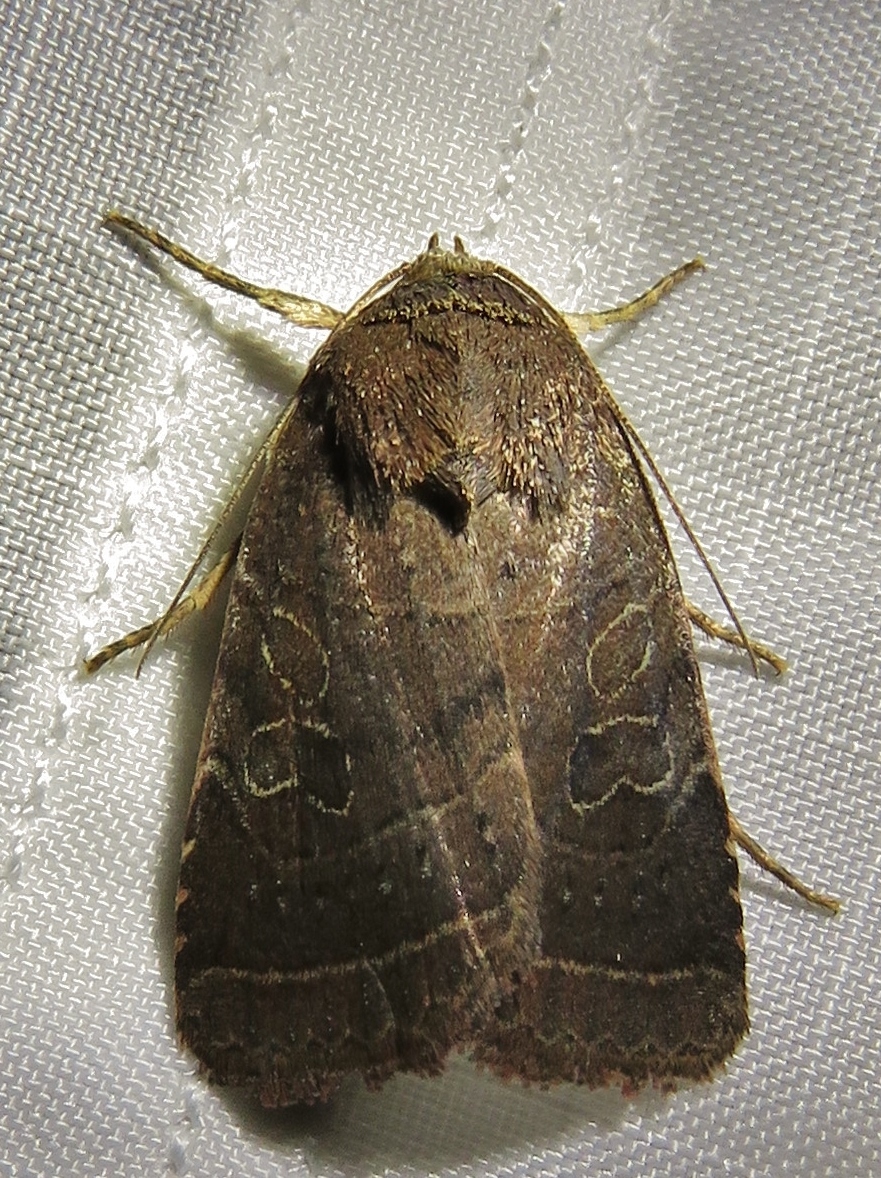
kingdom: Animalia
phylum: Arthropoda
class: Insecta
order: Lepidoptera
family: Noctuidae
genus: Orthodes
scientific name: Orthodes majuscula
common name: Rustic quaker
